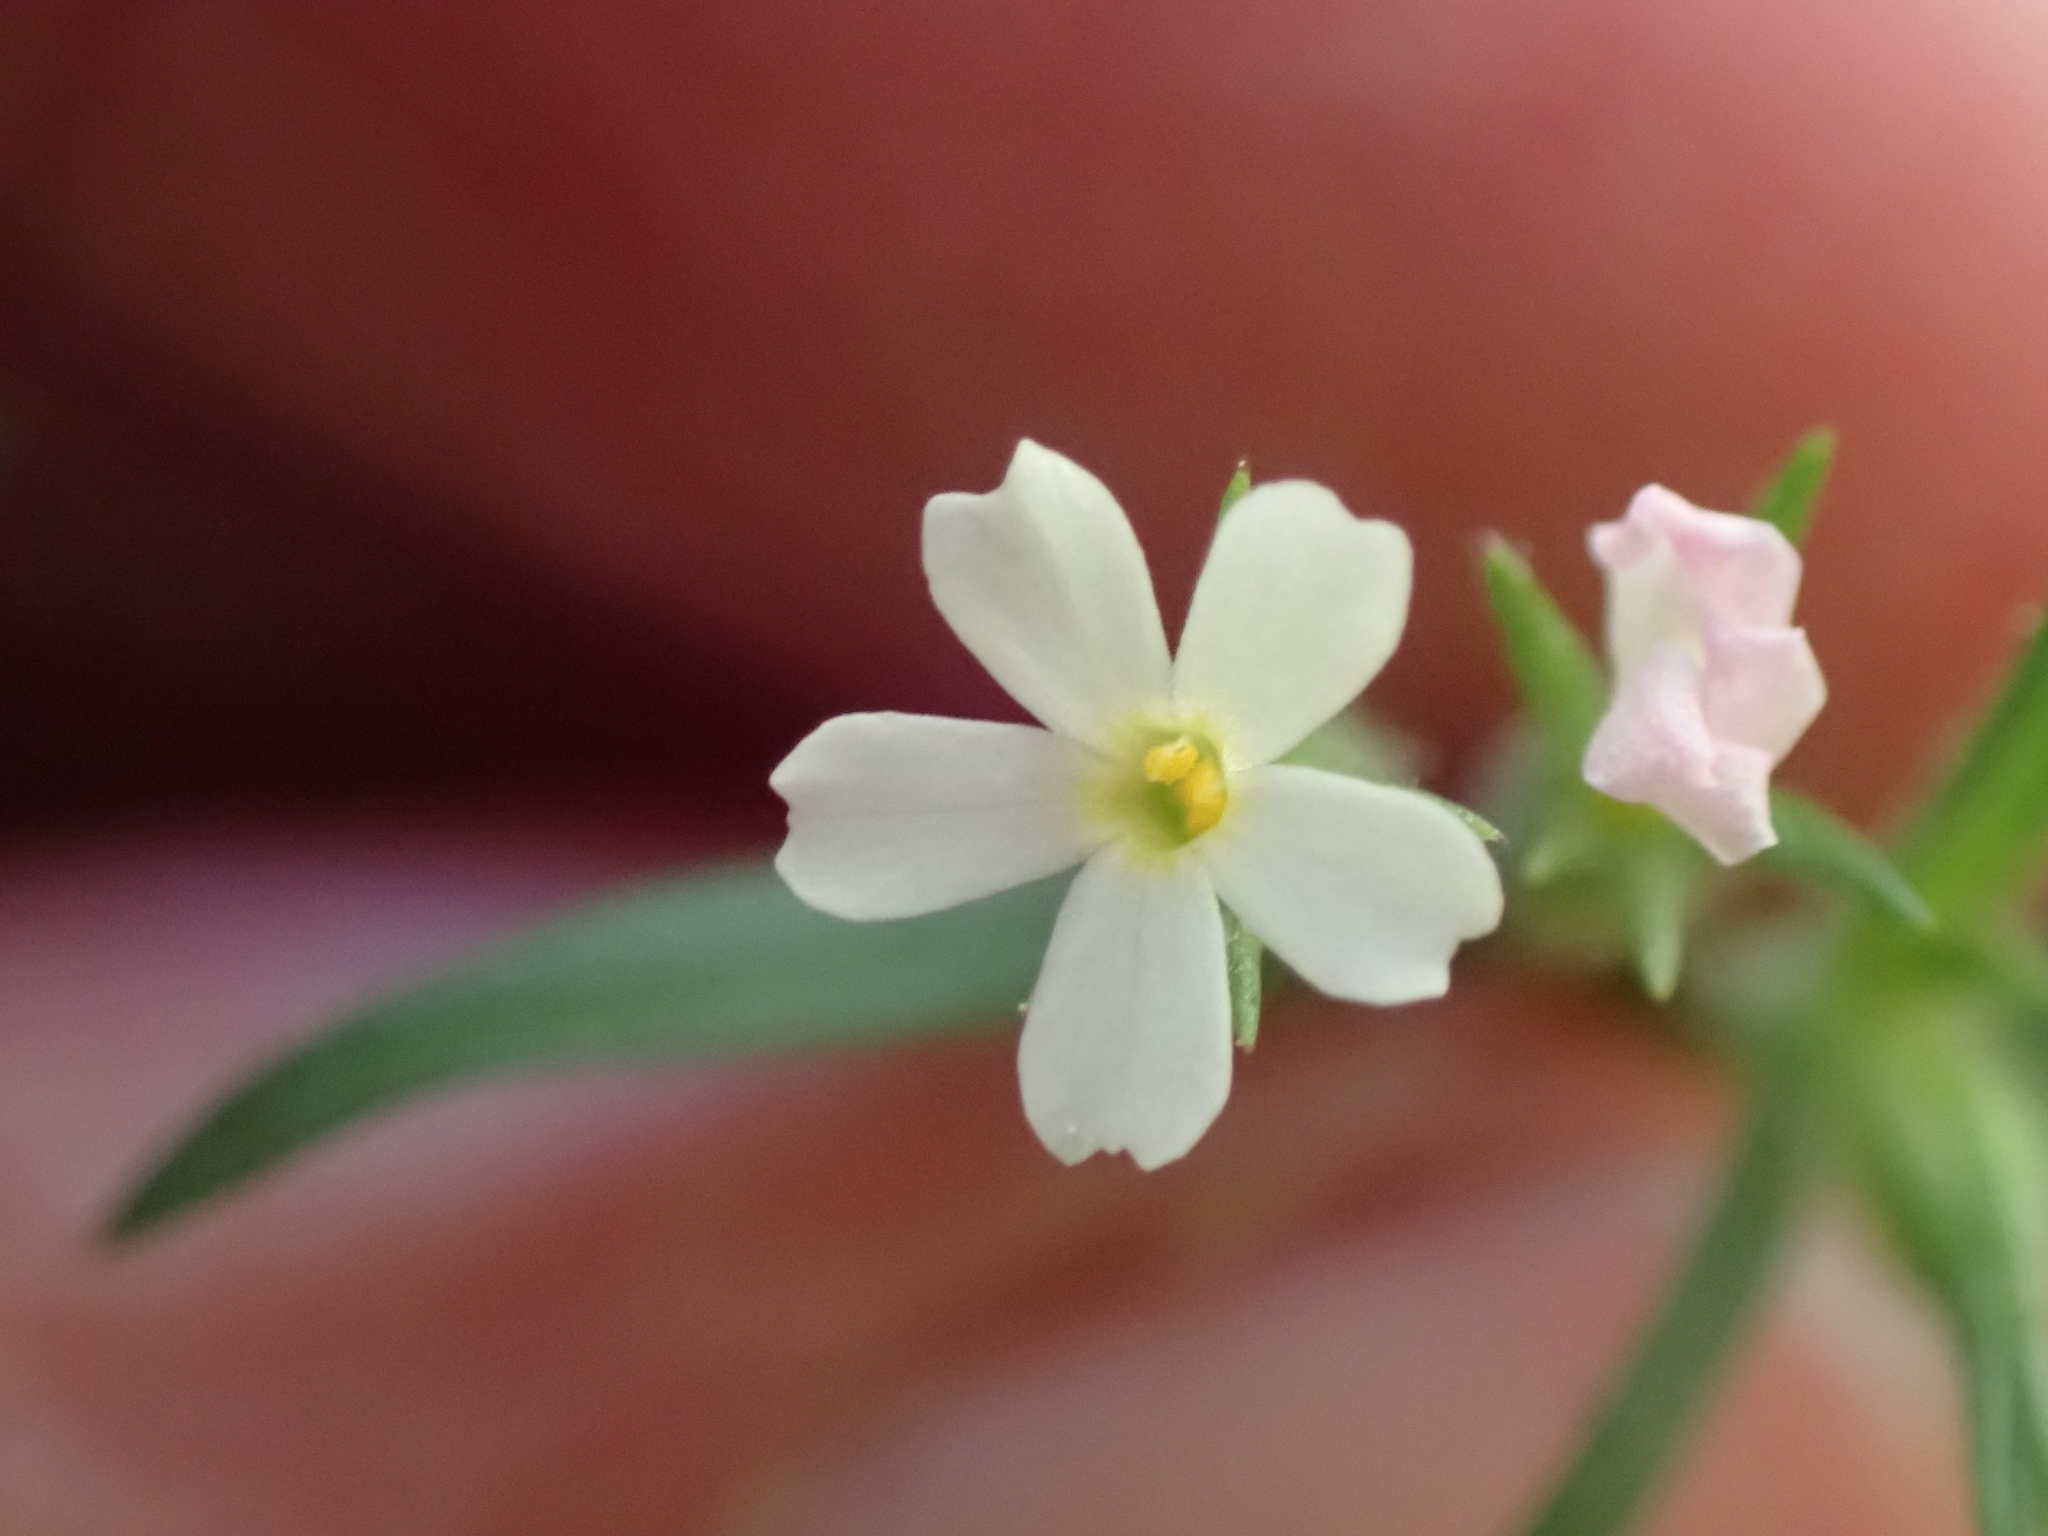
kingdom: Plantae
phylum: Tracheophyta
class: Magnoliopsida
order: Ericales
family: Polemoniaceae
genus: Phlox
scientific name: Phlox gracilis
